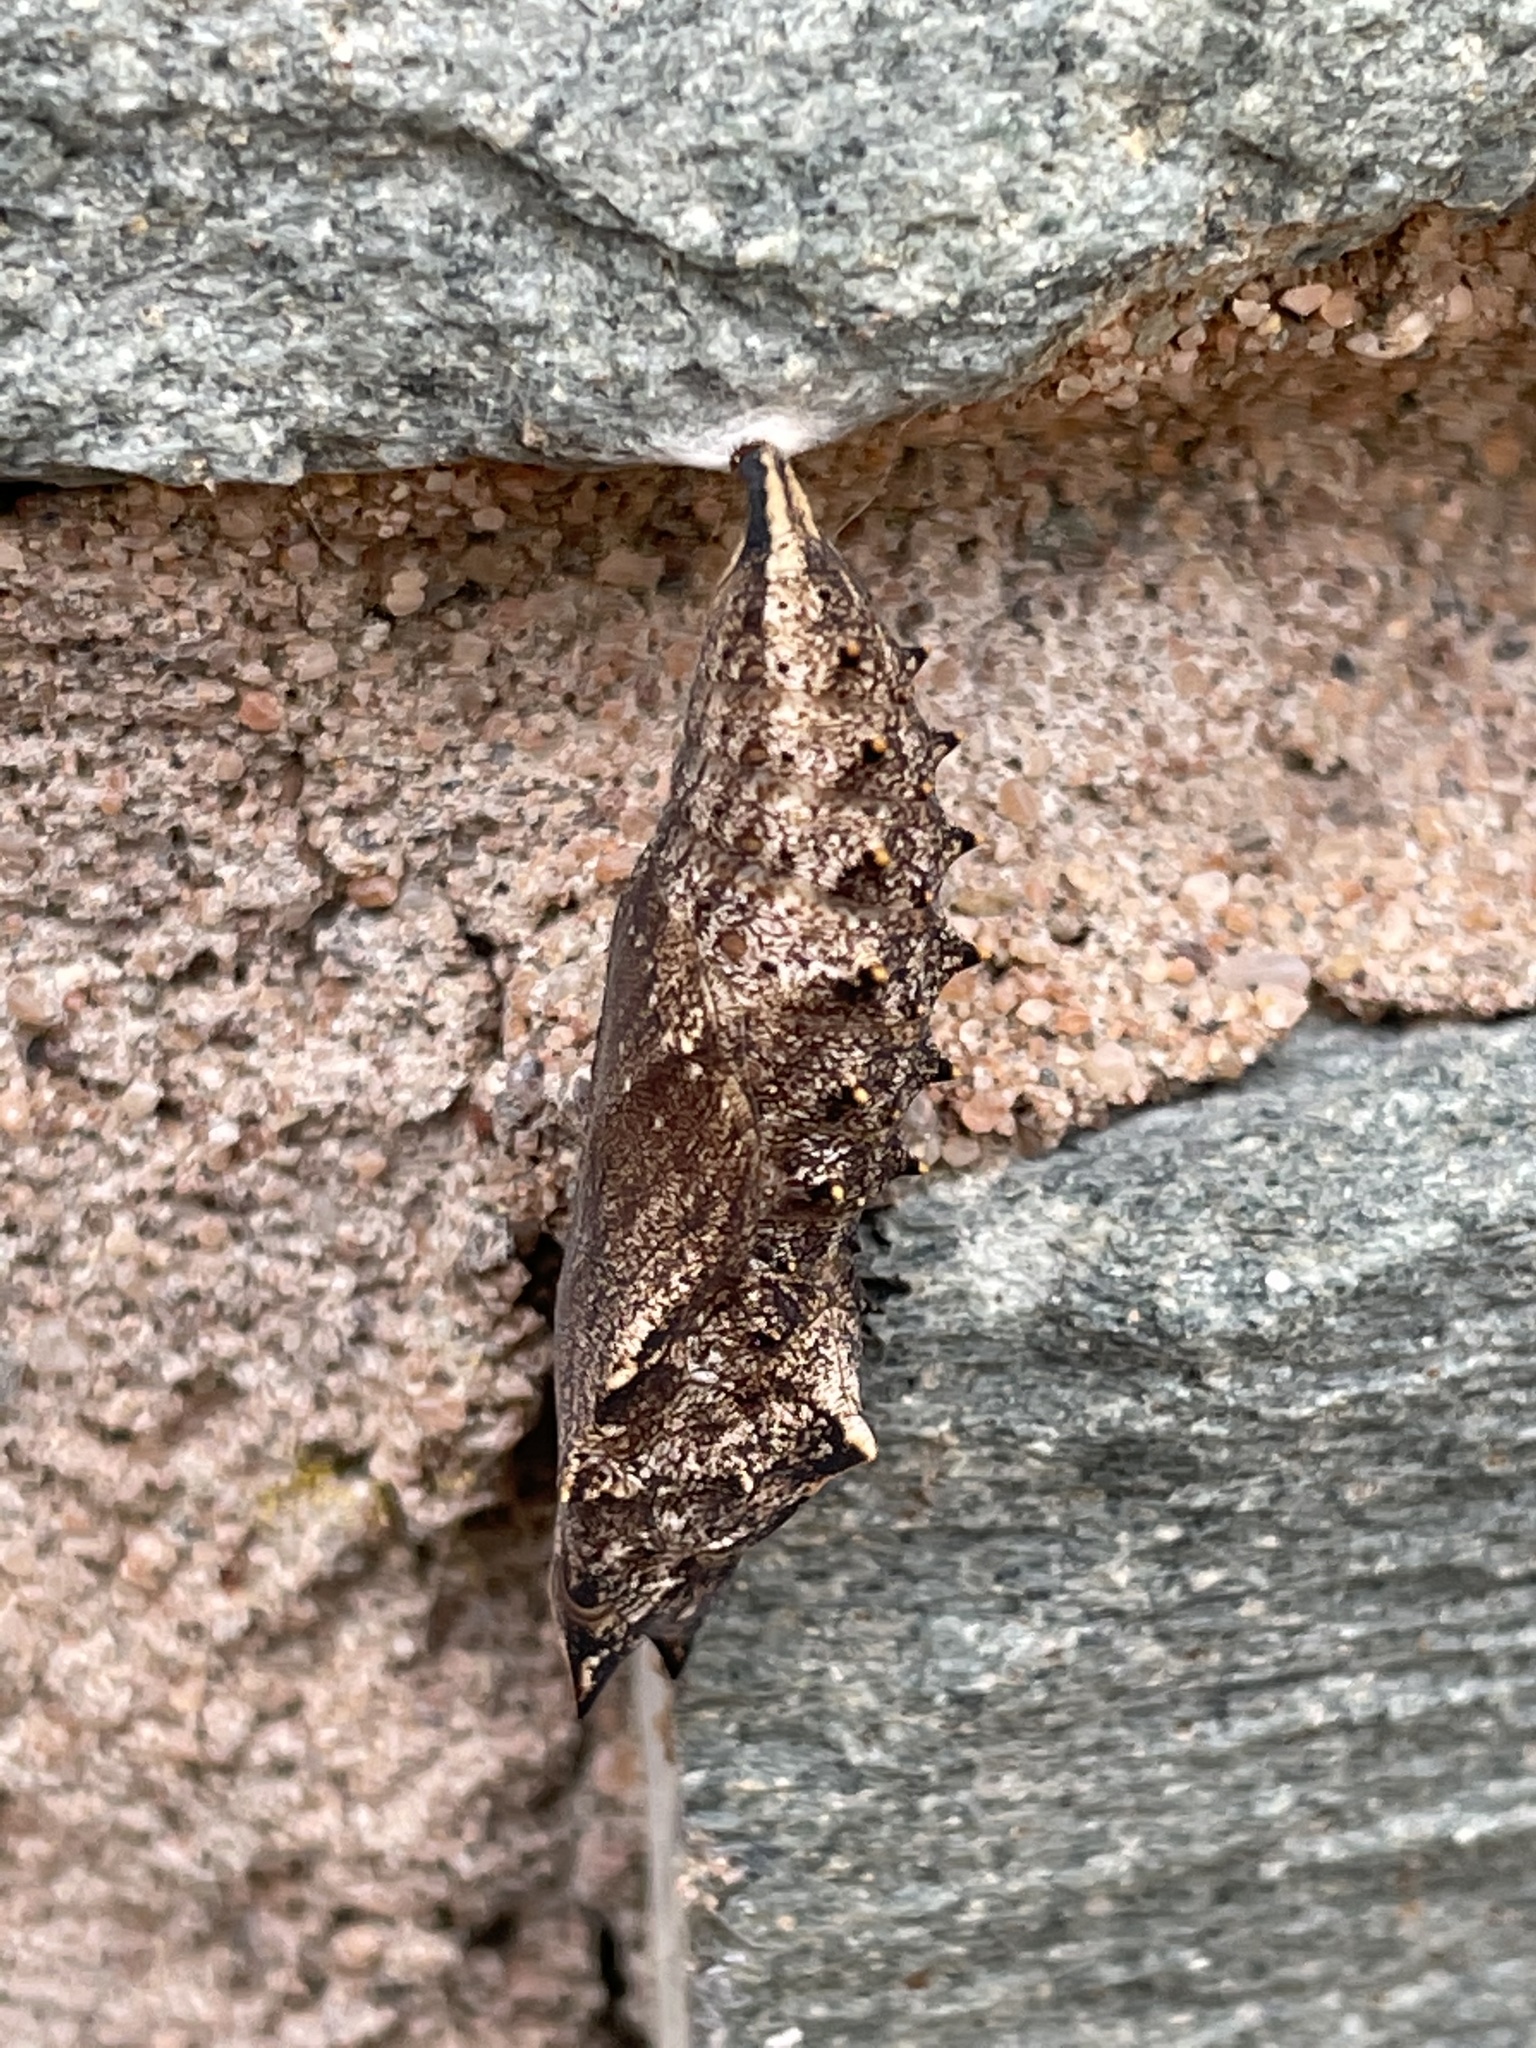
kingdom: Animalia
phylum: Arthropoda
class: Insecta
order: Lepidoptera
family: Nymphalidae
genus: Aglais
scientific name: Aglais io
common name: Peacock
